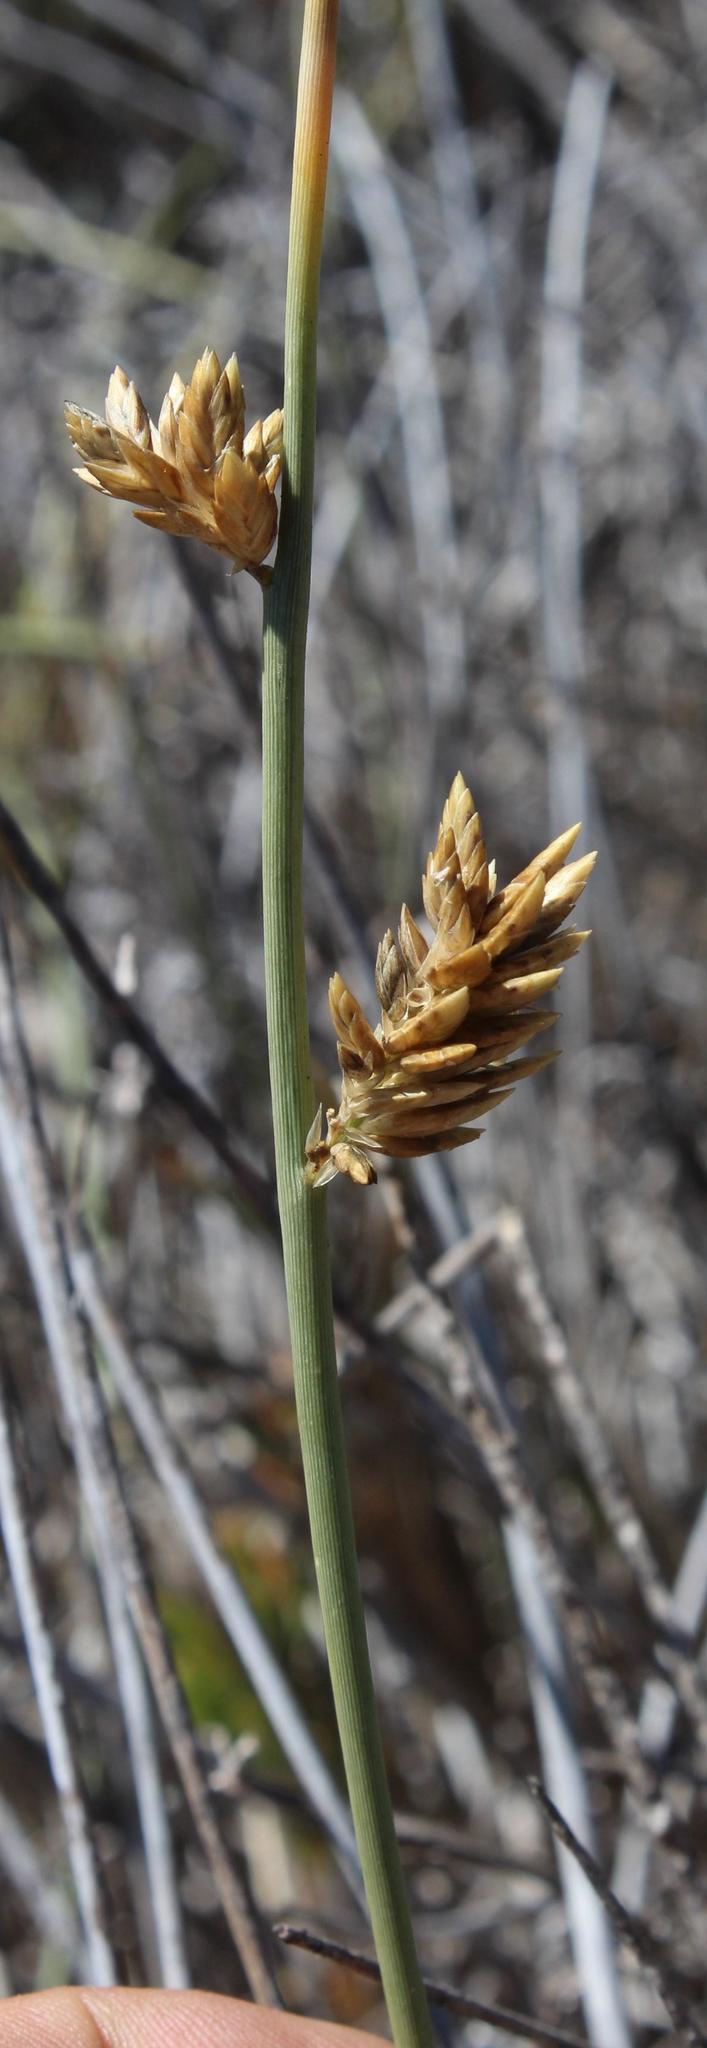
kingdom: Plantae
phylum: Tracheophyta
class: Liliopsida
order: Poales
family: Poaceae
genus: Cladoraphis
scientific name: Cladoraphis cyperoides
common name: Bristly lovegrass
